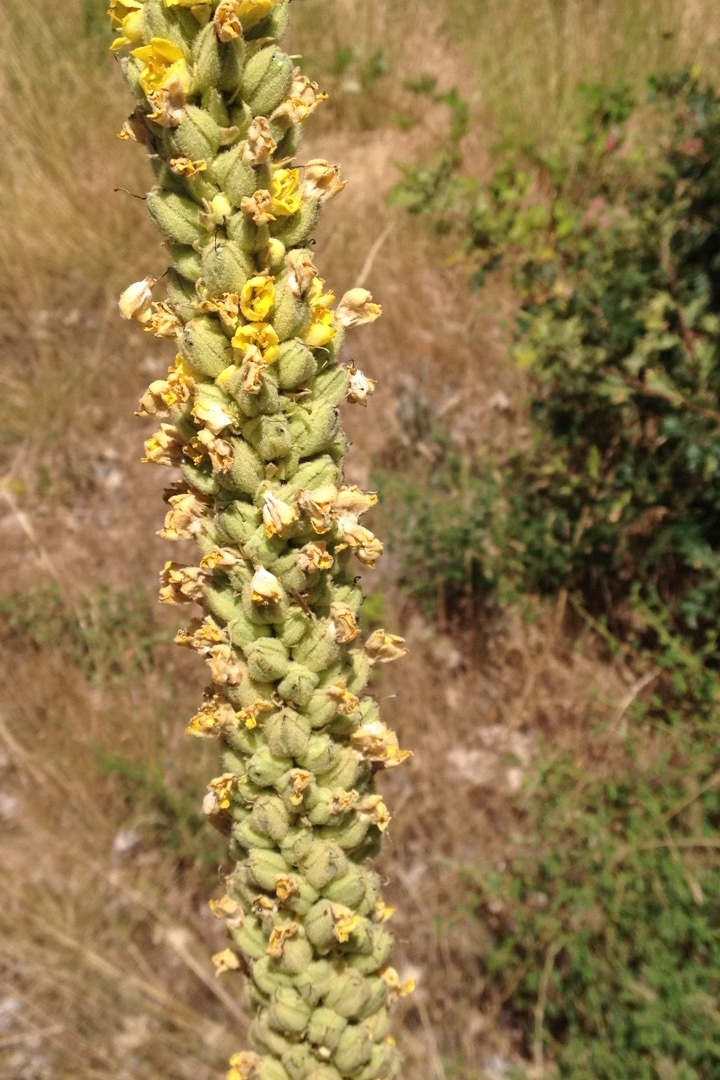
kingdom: Plantae
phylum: Tracheophyta
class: Magnoliopsida
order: Lamiales
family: Scrophulariaceae
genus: Verbascum
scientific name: Verbascum thapsus
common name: Common mullein
